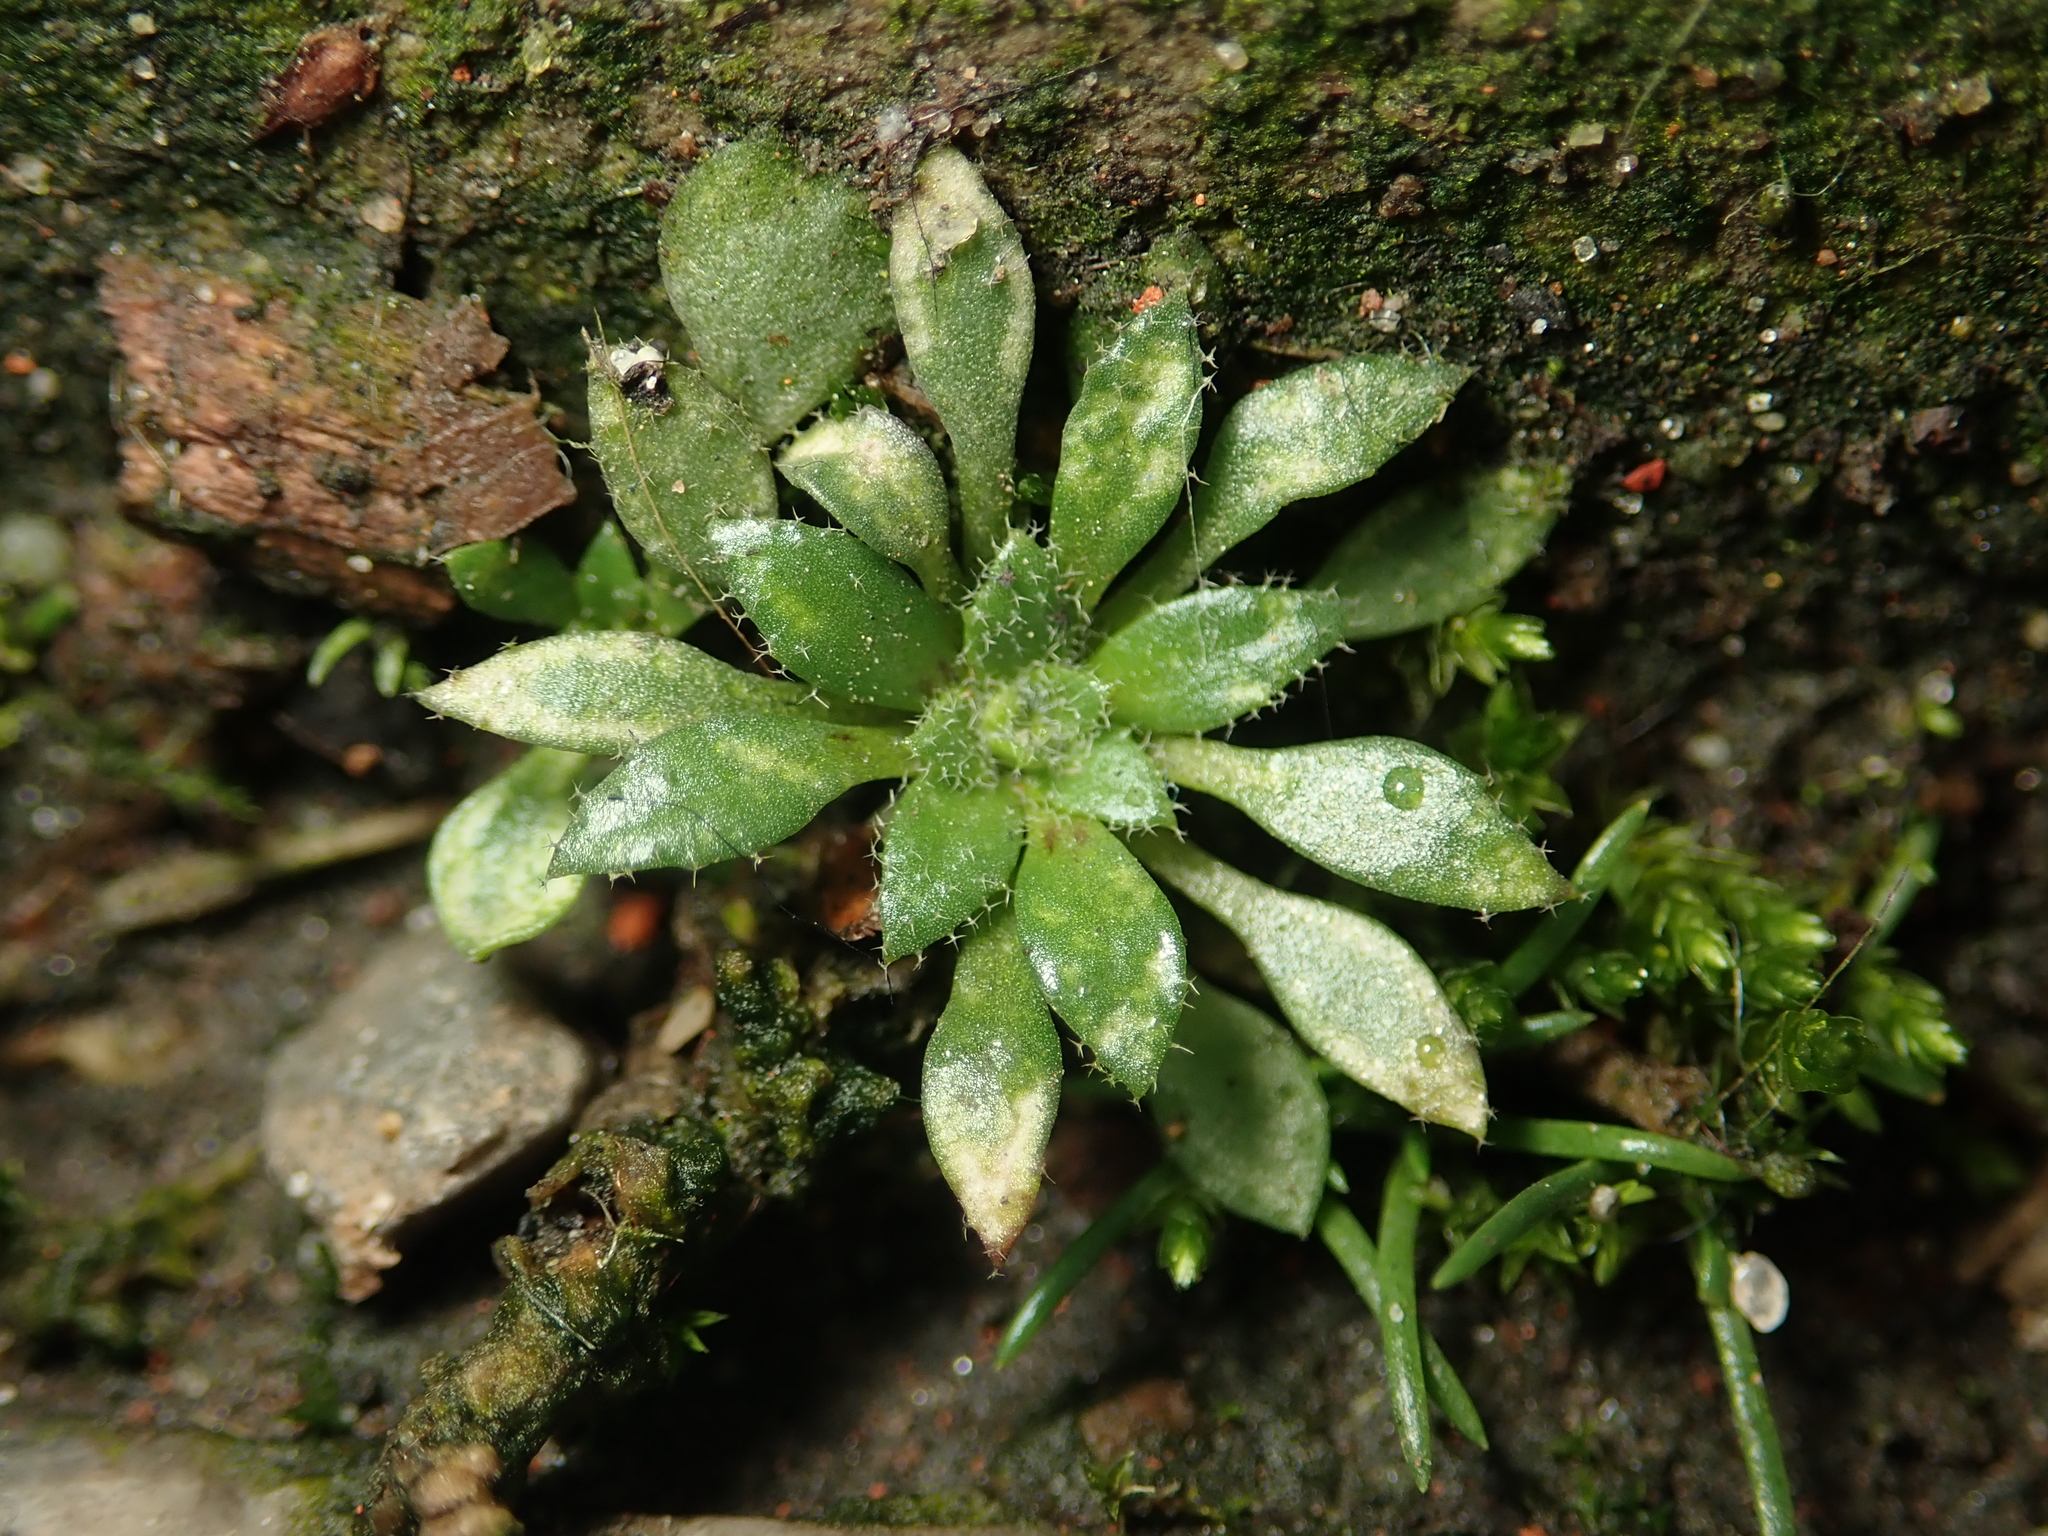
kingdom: Plantae
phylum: Tracheophyta
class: Magnoliopsida
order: Brassicales
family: Brassicaceae
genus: Draba
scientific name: Draba verna
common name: Spring draba
